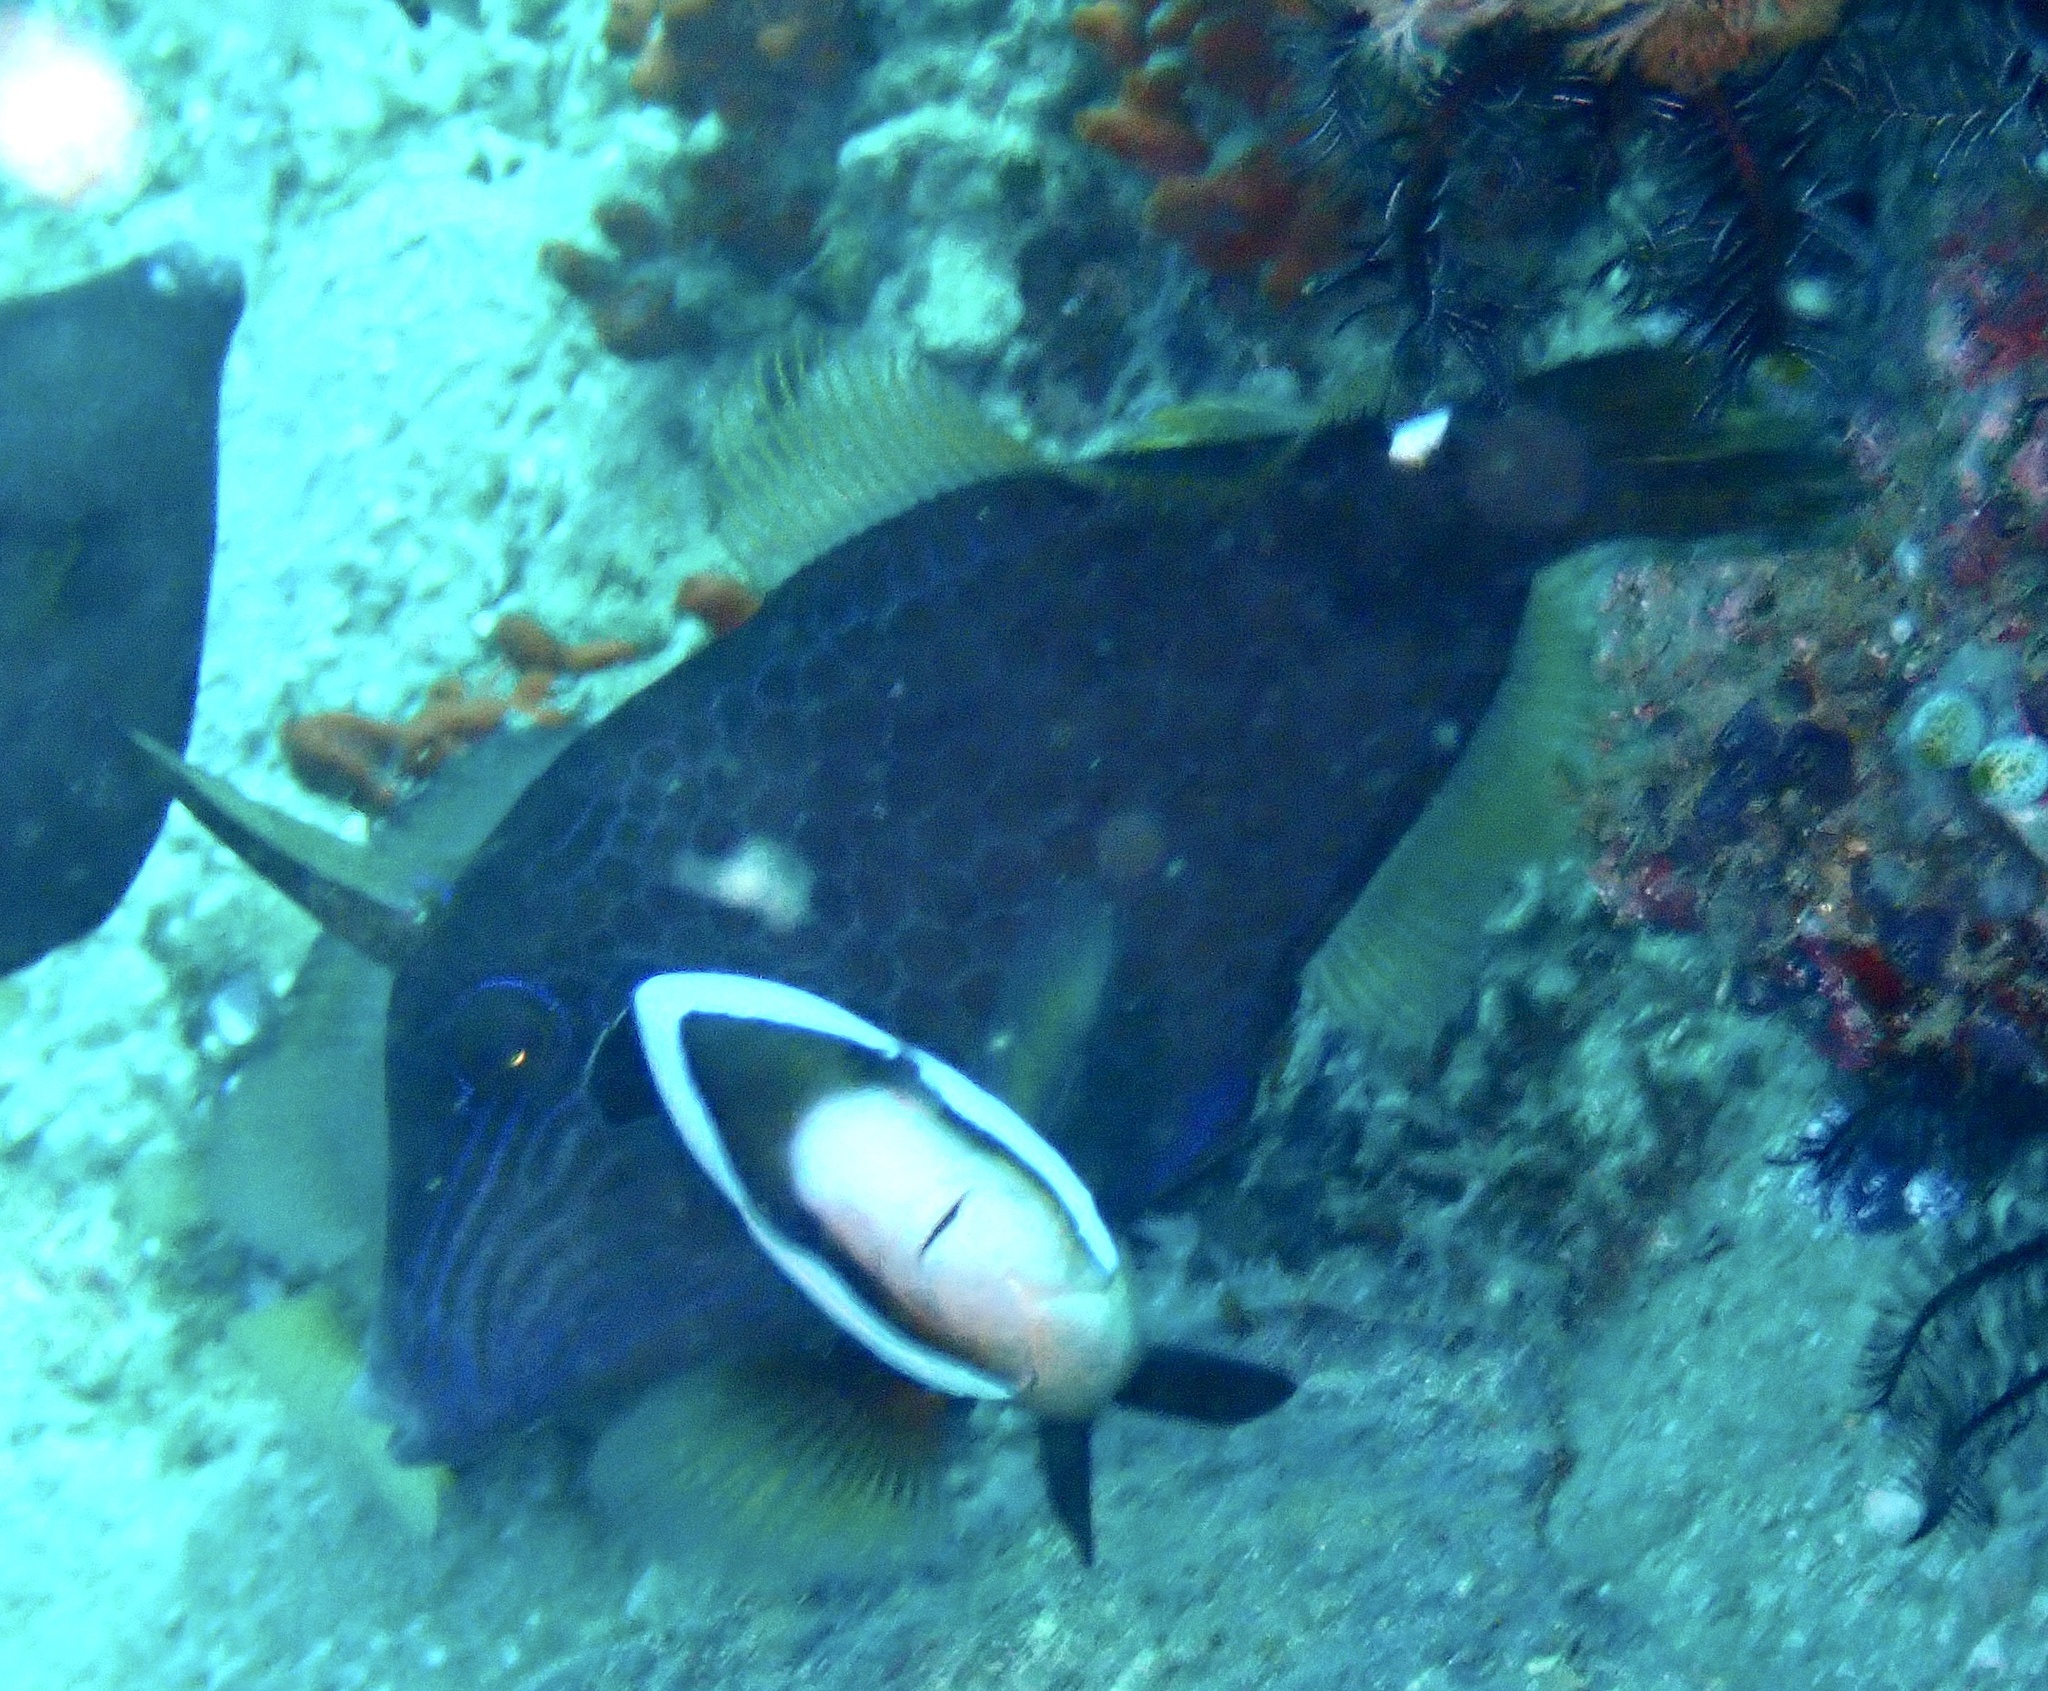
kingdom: Animalia
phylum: Chordata
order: Tetraodontiformes
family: Monacanthidae
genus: Cantherhines
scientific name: Cantherhines pardalis
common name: Honeycomb filefish
